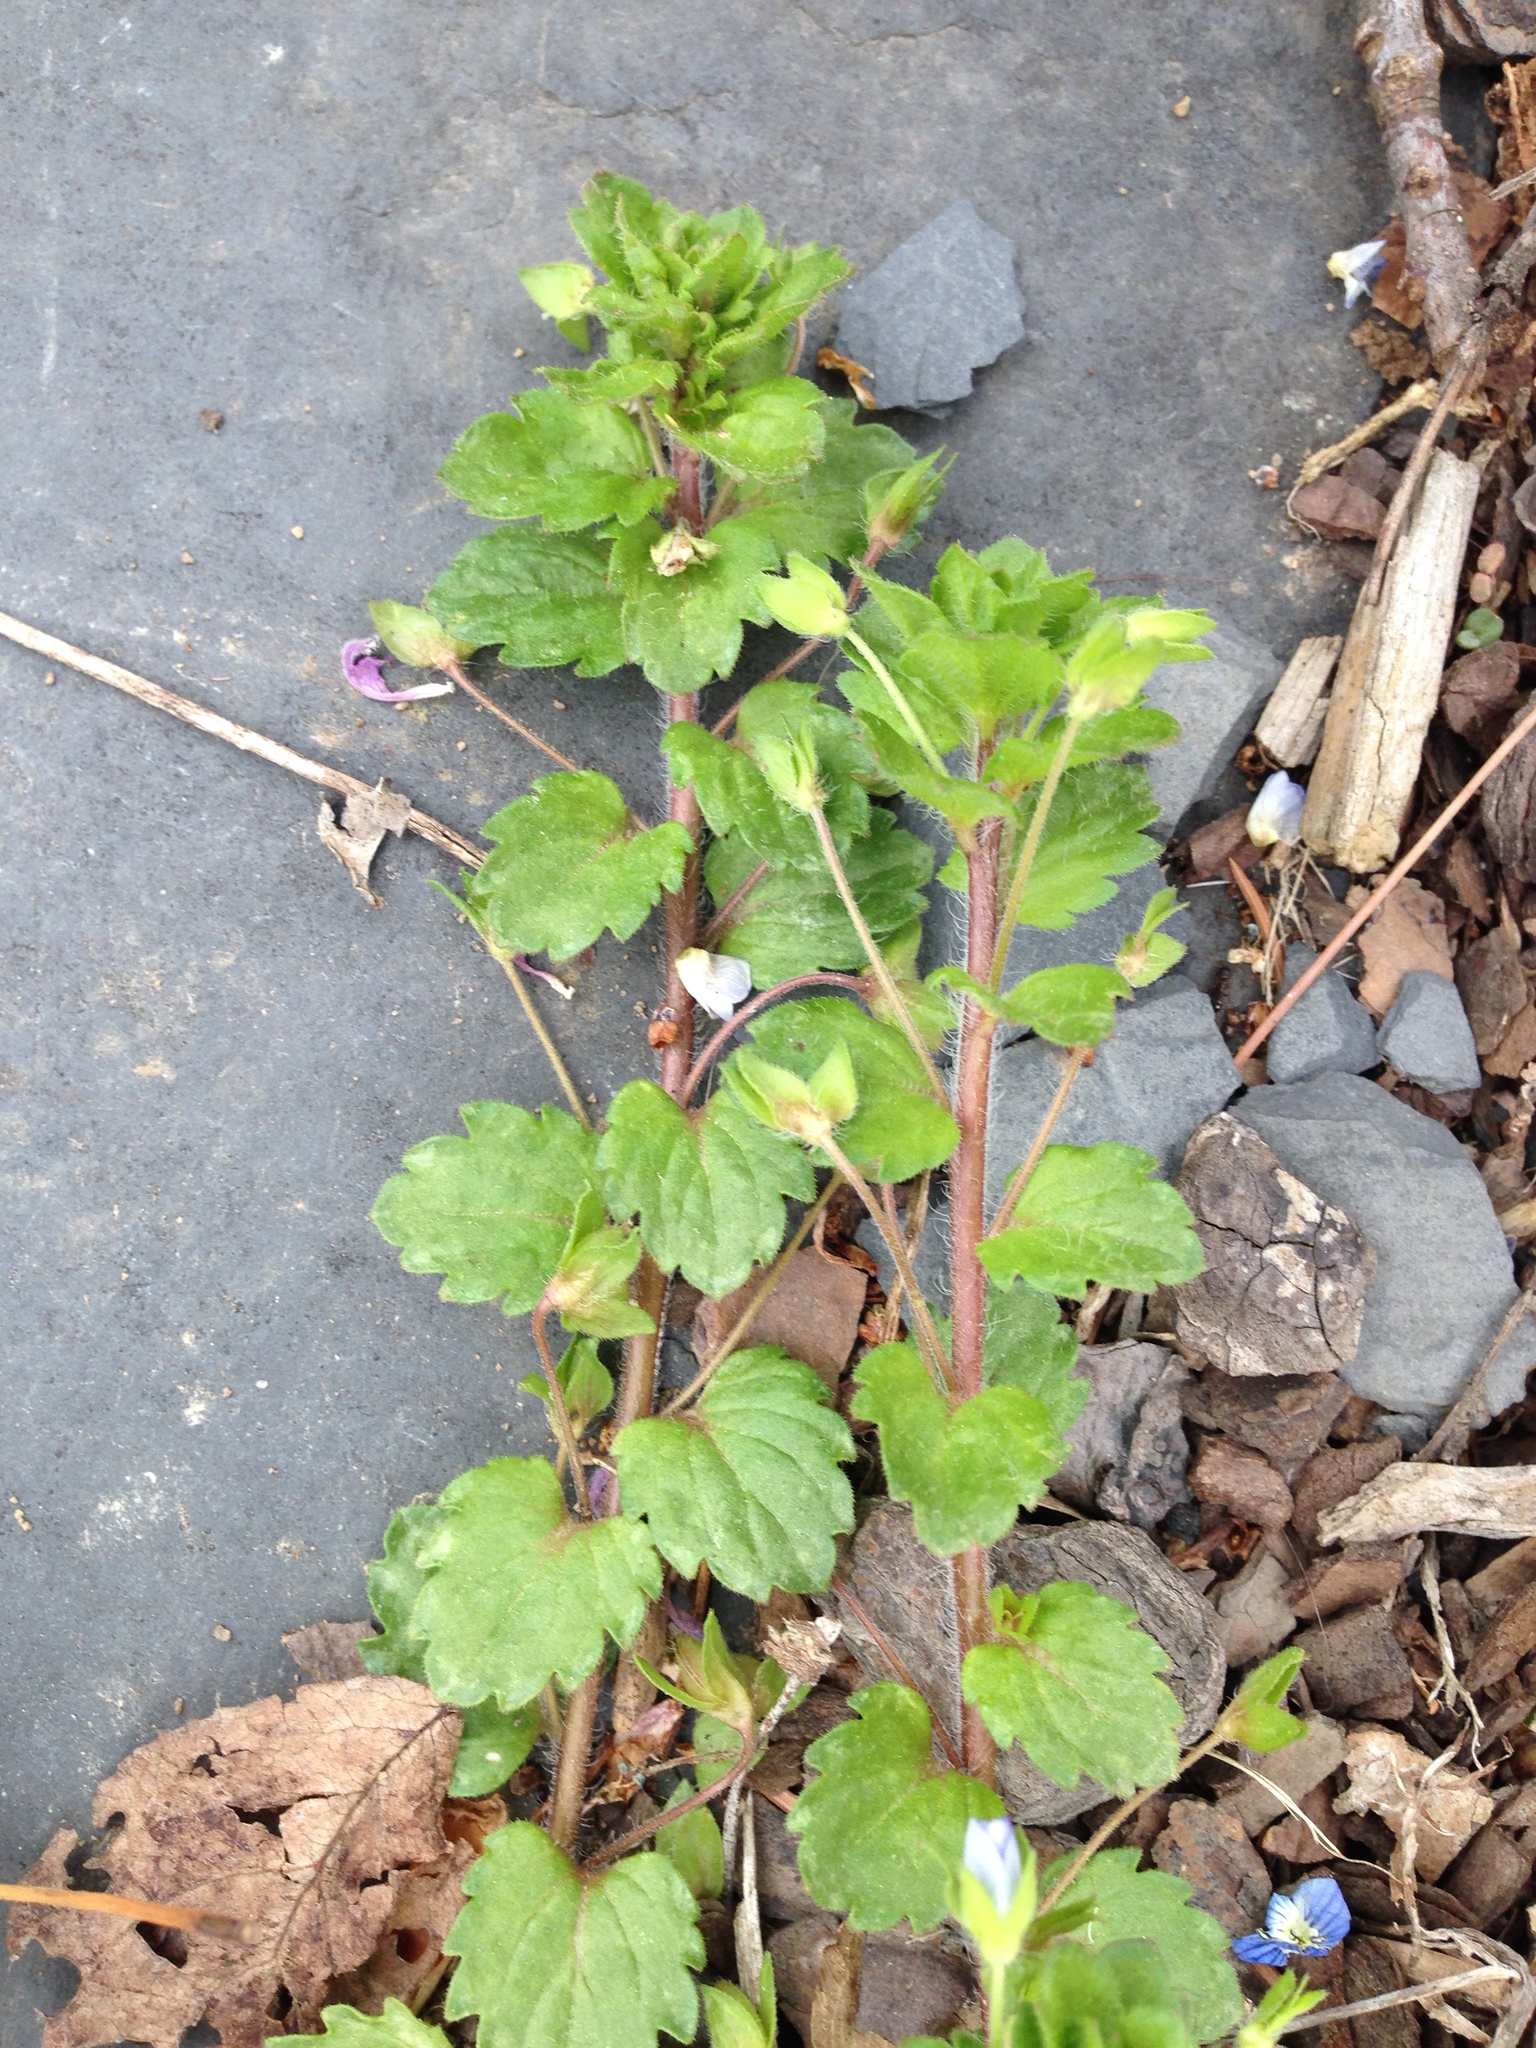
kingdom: Plantae
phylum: Tracheophyta
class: Magnoliopsida
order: Lamiales
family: Plantaginaceae
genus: Veronica
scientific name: Veronica persica
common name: Common field-speedwell
